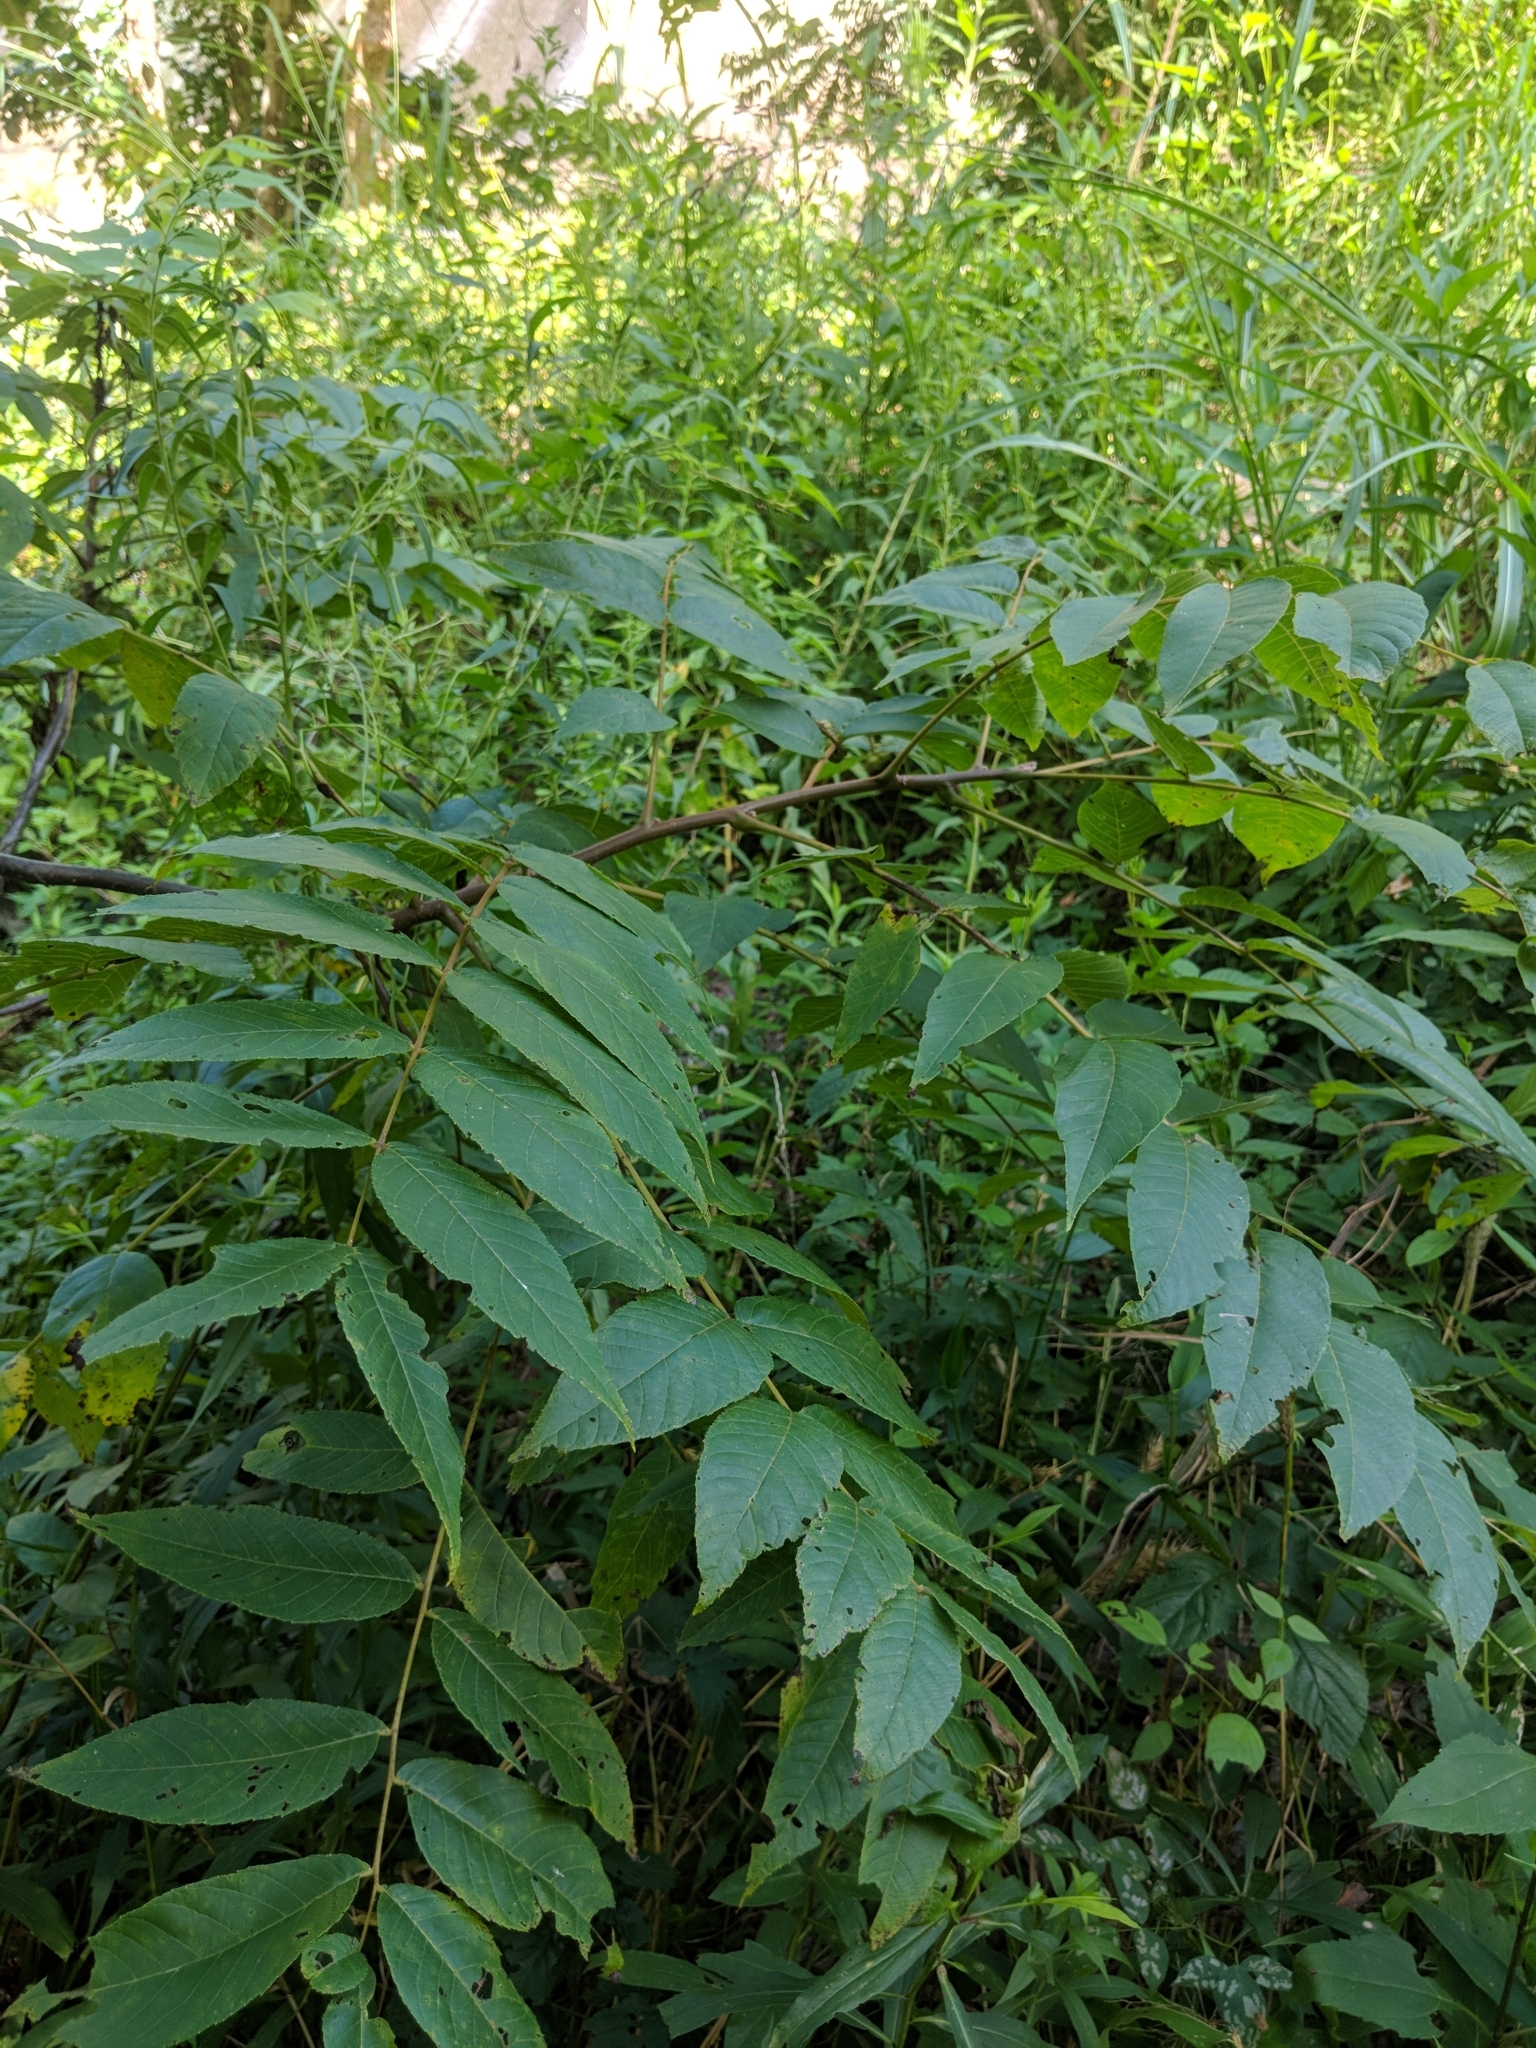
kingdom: Plantae
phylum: Tracheophyta
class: Magnoliopsida
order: Fagales
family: Juglandaceae
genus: Juglans
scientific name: Juglans nigra
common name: Black walnut
